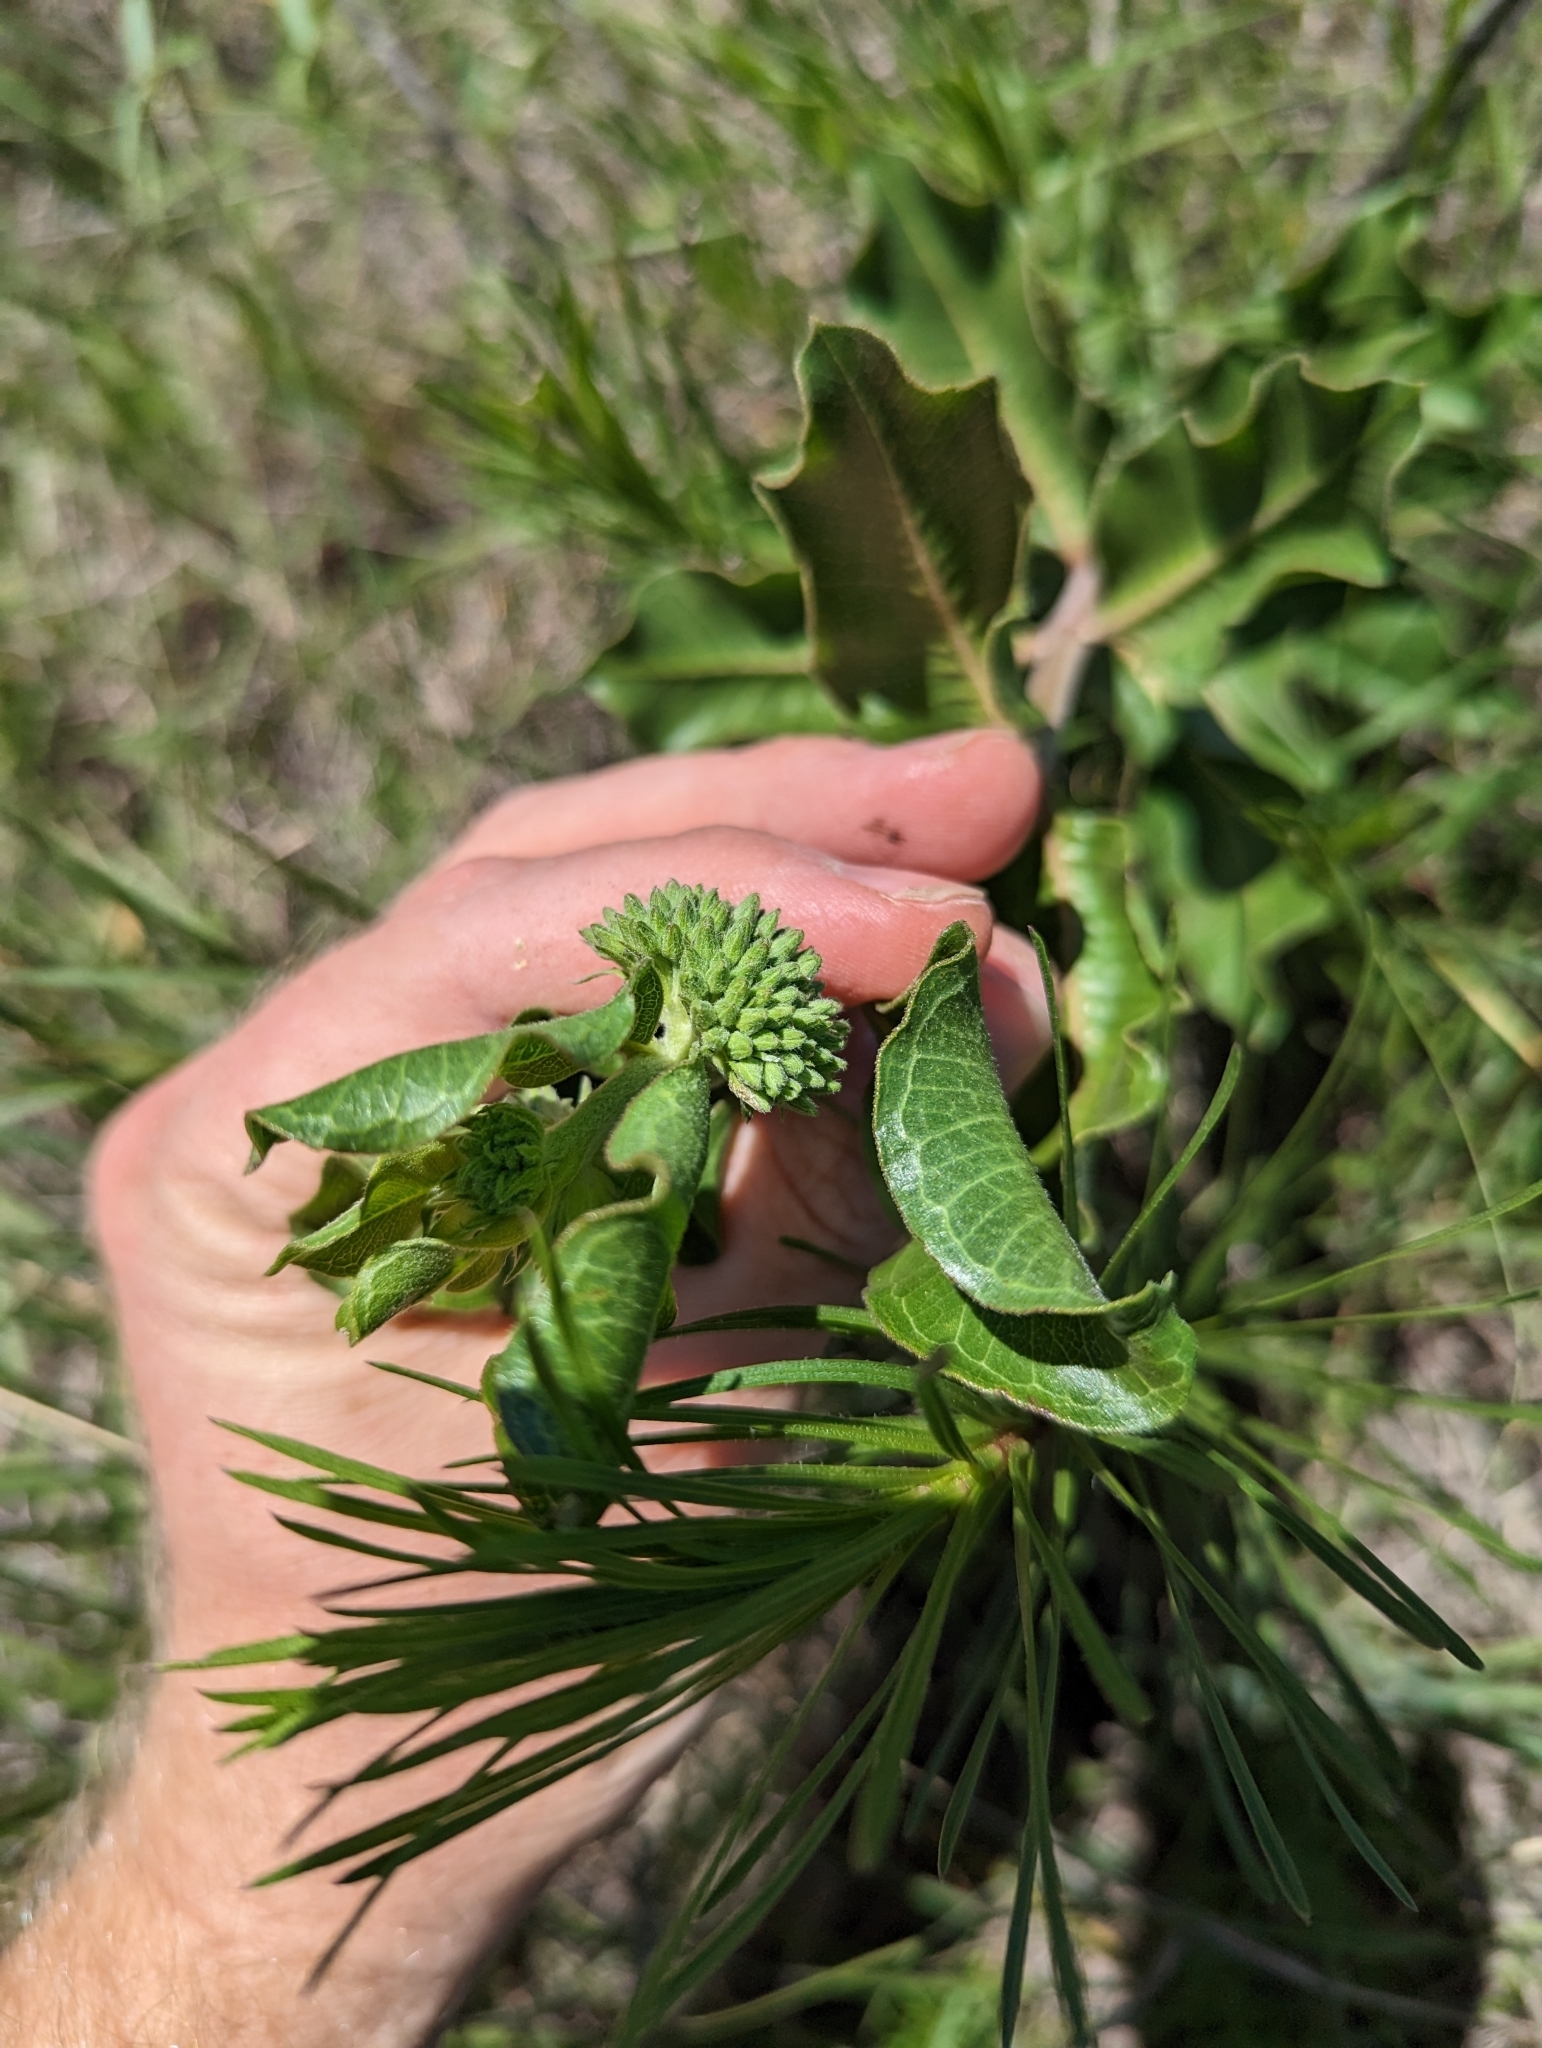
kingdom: Plantae
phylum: Tracheophyta
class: Magnoliopsida
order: Gentianales
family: Apocynaceae
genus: Asclepias
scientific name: Asclepias viridiflora
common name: Green comet milkweed
